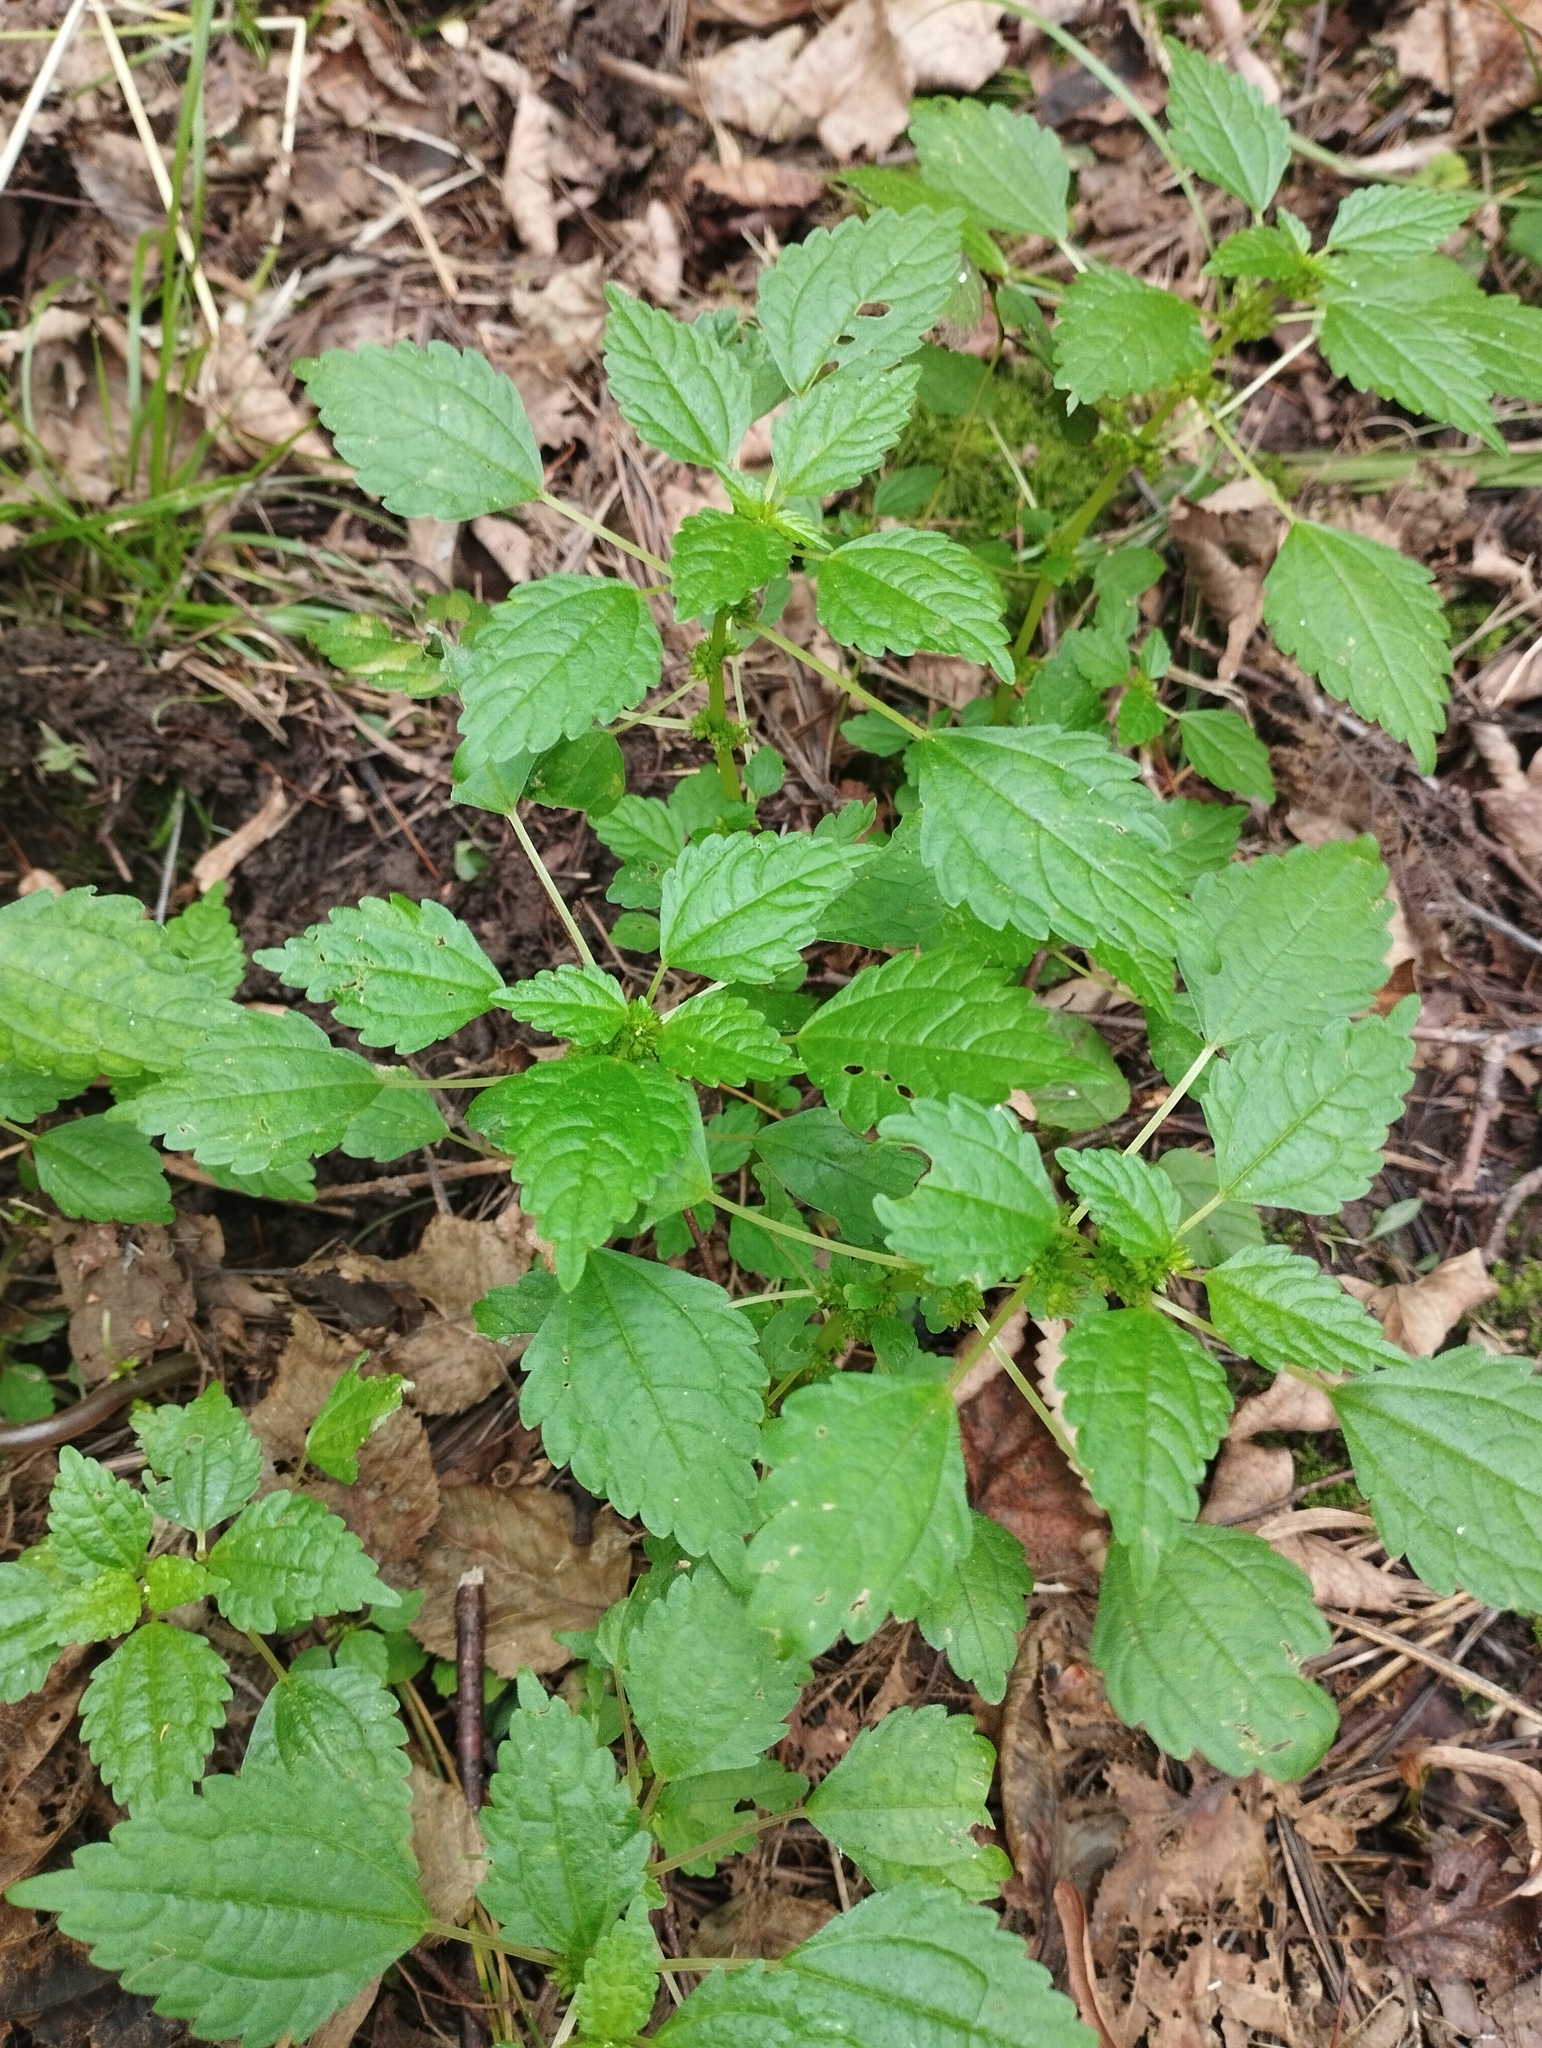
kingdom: Plantae
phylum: Tracheophyta
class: Magnoliopsida
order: Rosales
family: Urticaceae
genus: Pilea
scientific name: Pilea pumila
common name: Clearweed
